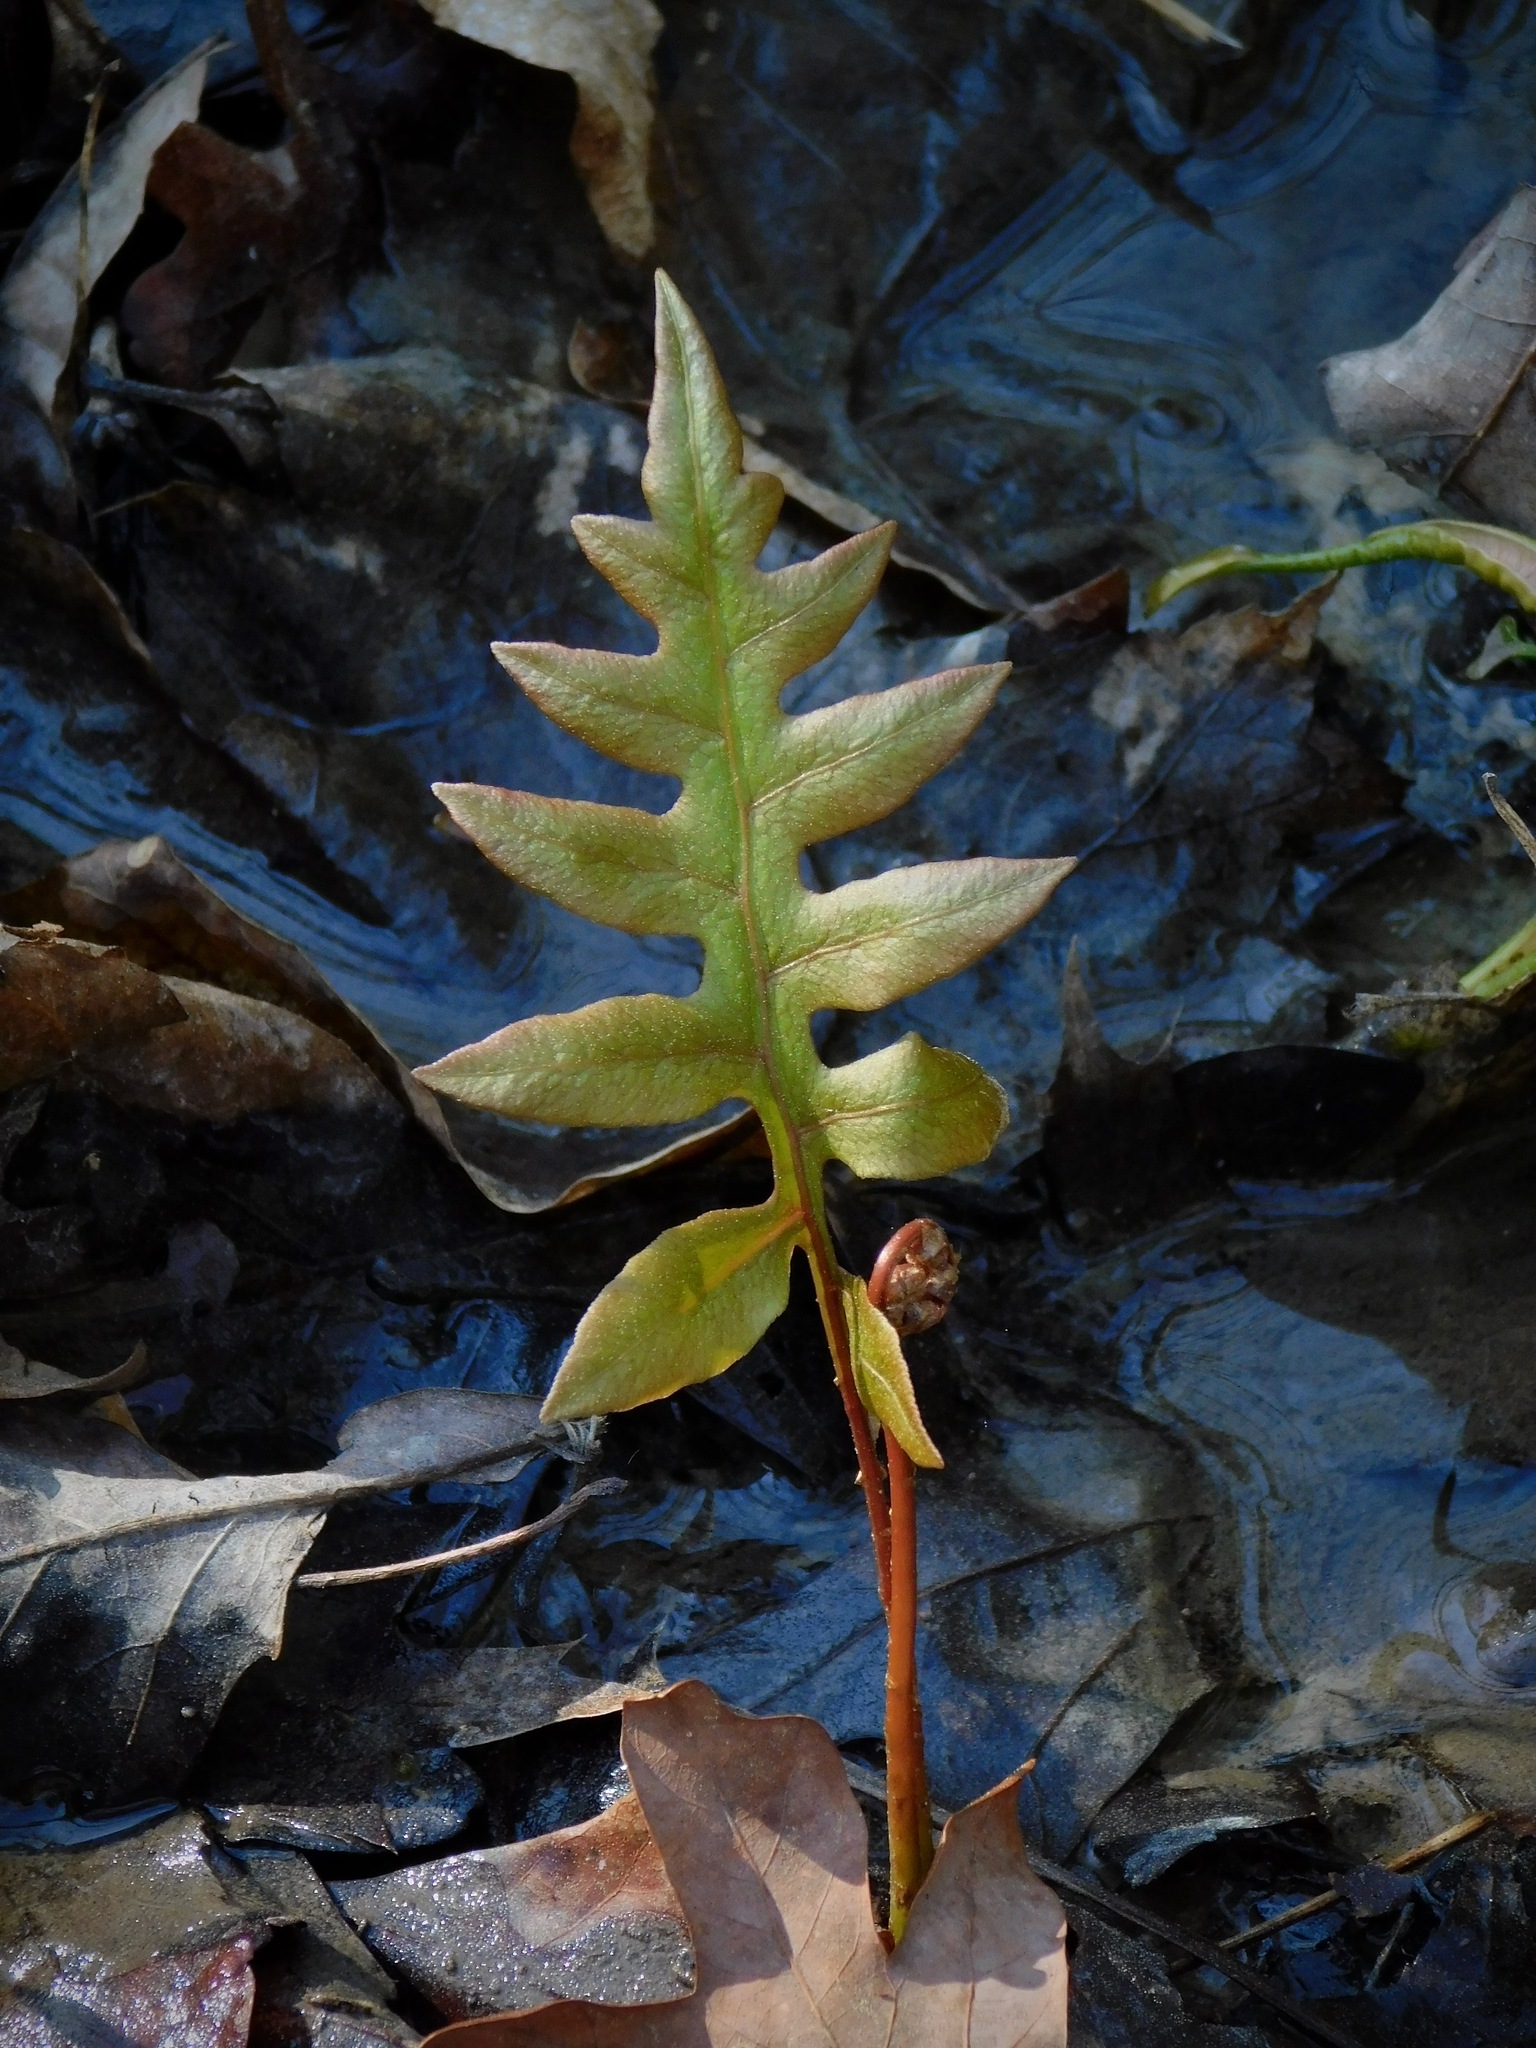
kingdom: Plantae
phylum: Tracheophyta
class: Polypodiopsida
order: Polypodiales
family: Blechnaceae
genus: Lorinseria
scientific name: Lorinseria areolata
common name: Dwarf chain fern
